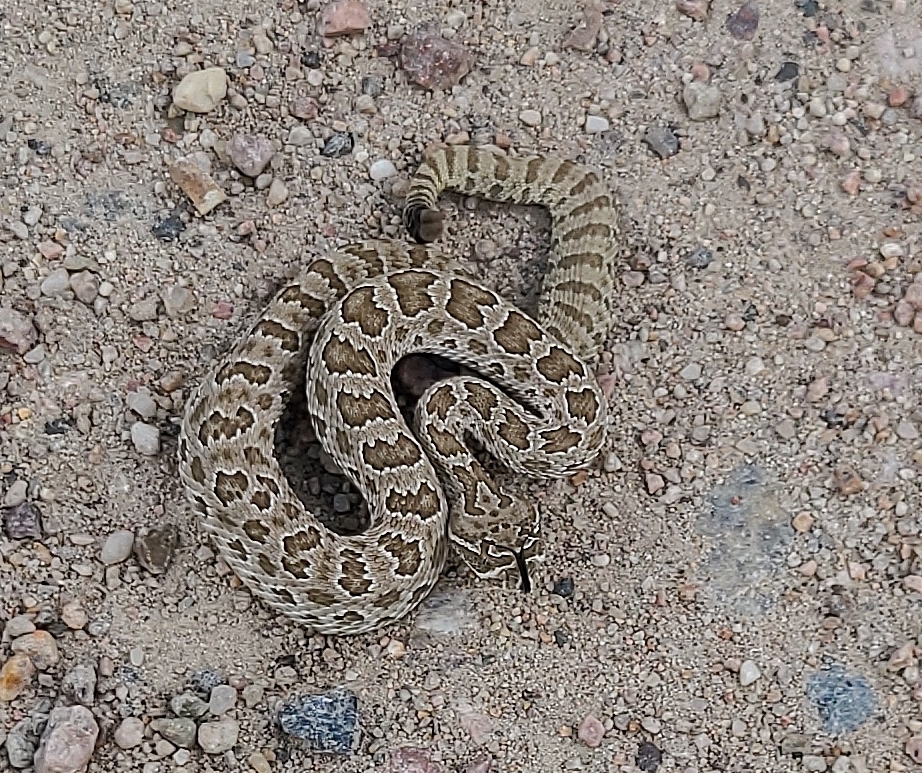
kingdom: Animalia
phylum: Chordata
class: Squamata
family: Viperidae
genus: Crotalus
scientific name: Crotalus viridis
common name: Prairie rattlesnake
